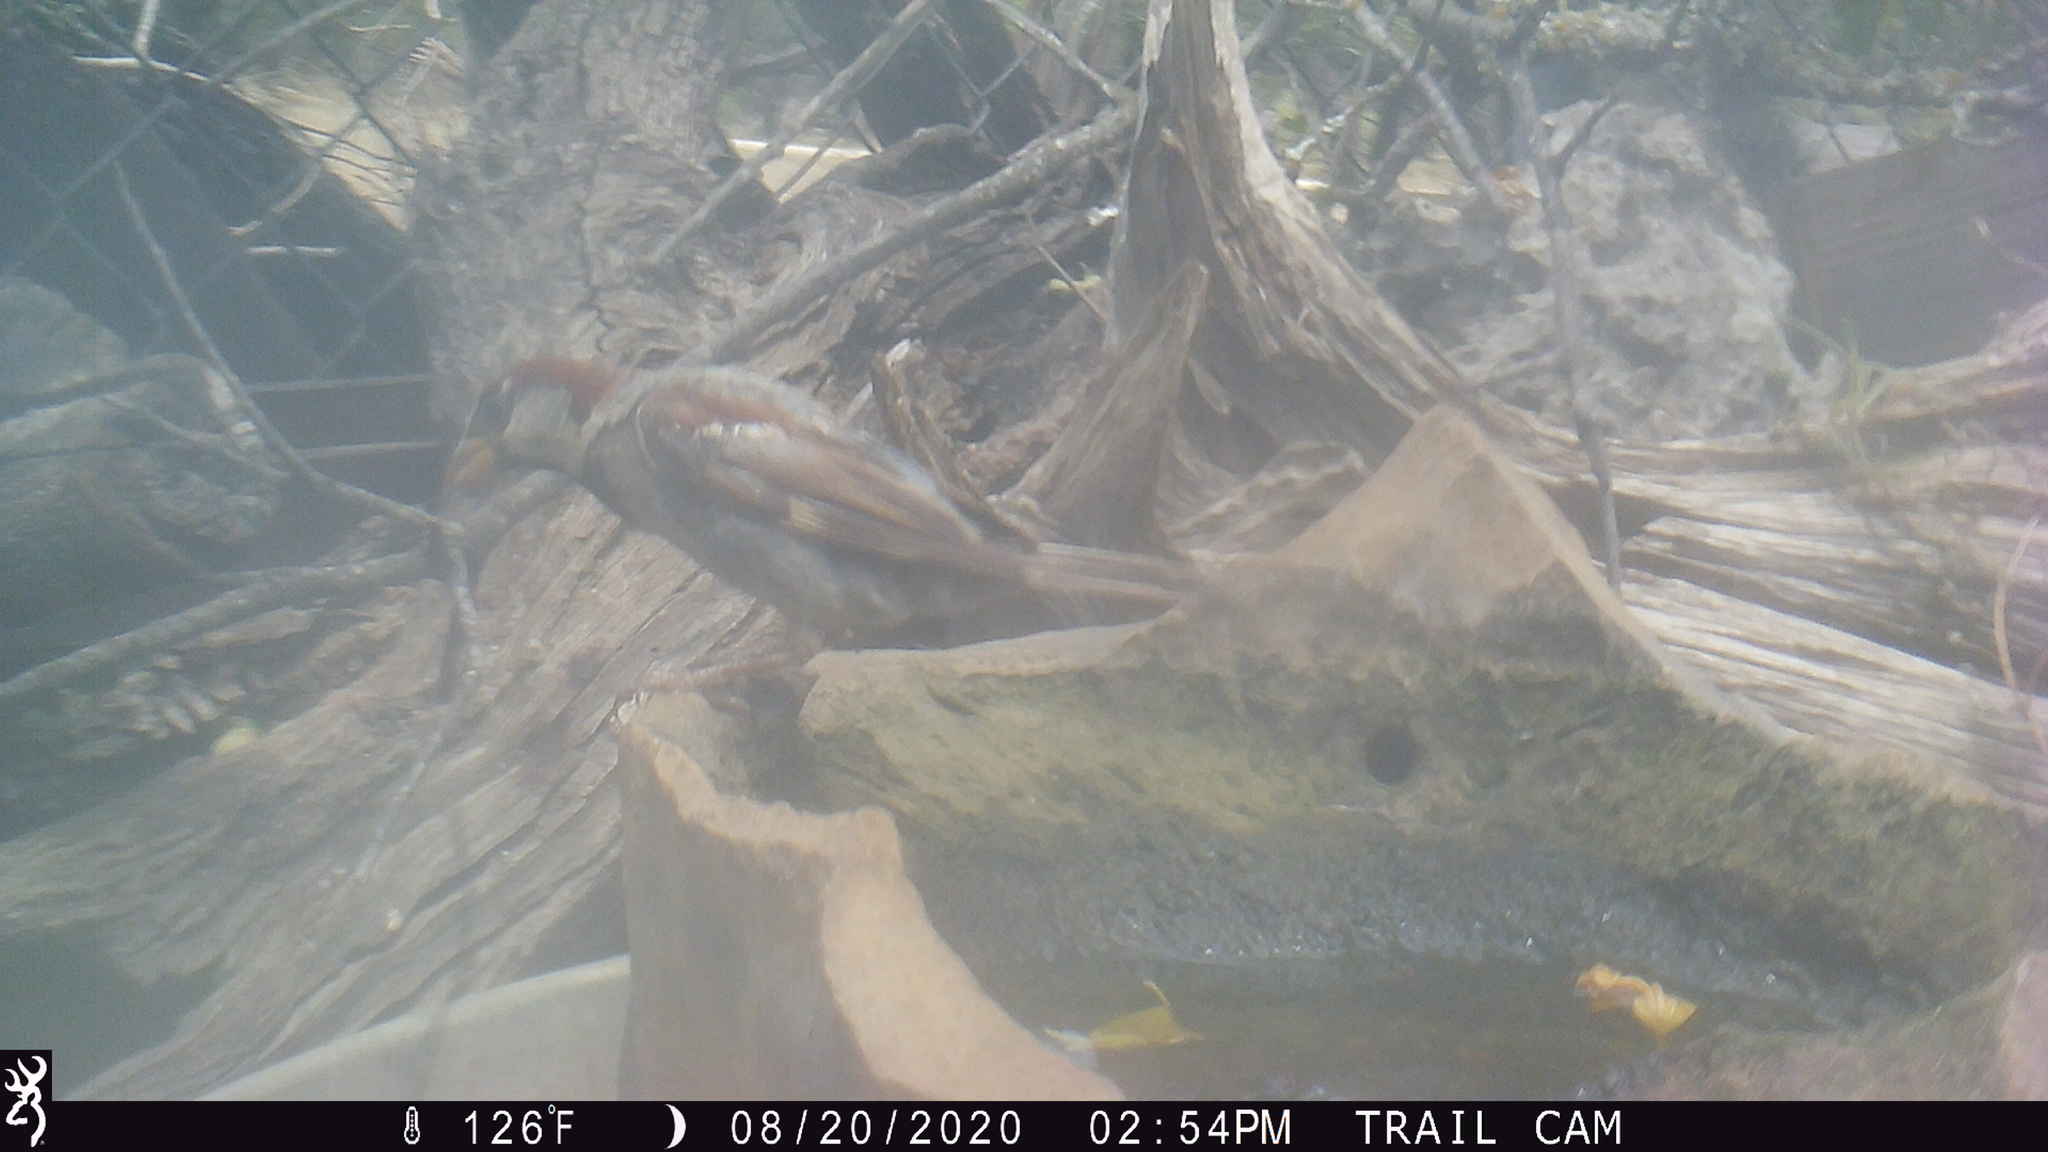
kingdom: Animalia
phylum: Chordata
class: Aves
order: Passeriformes
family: Passeridae
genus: Passer
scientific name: Passer domesticus
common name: House sparrow
